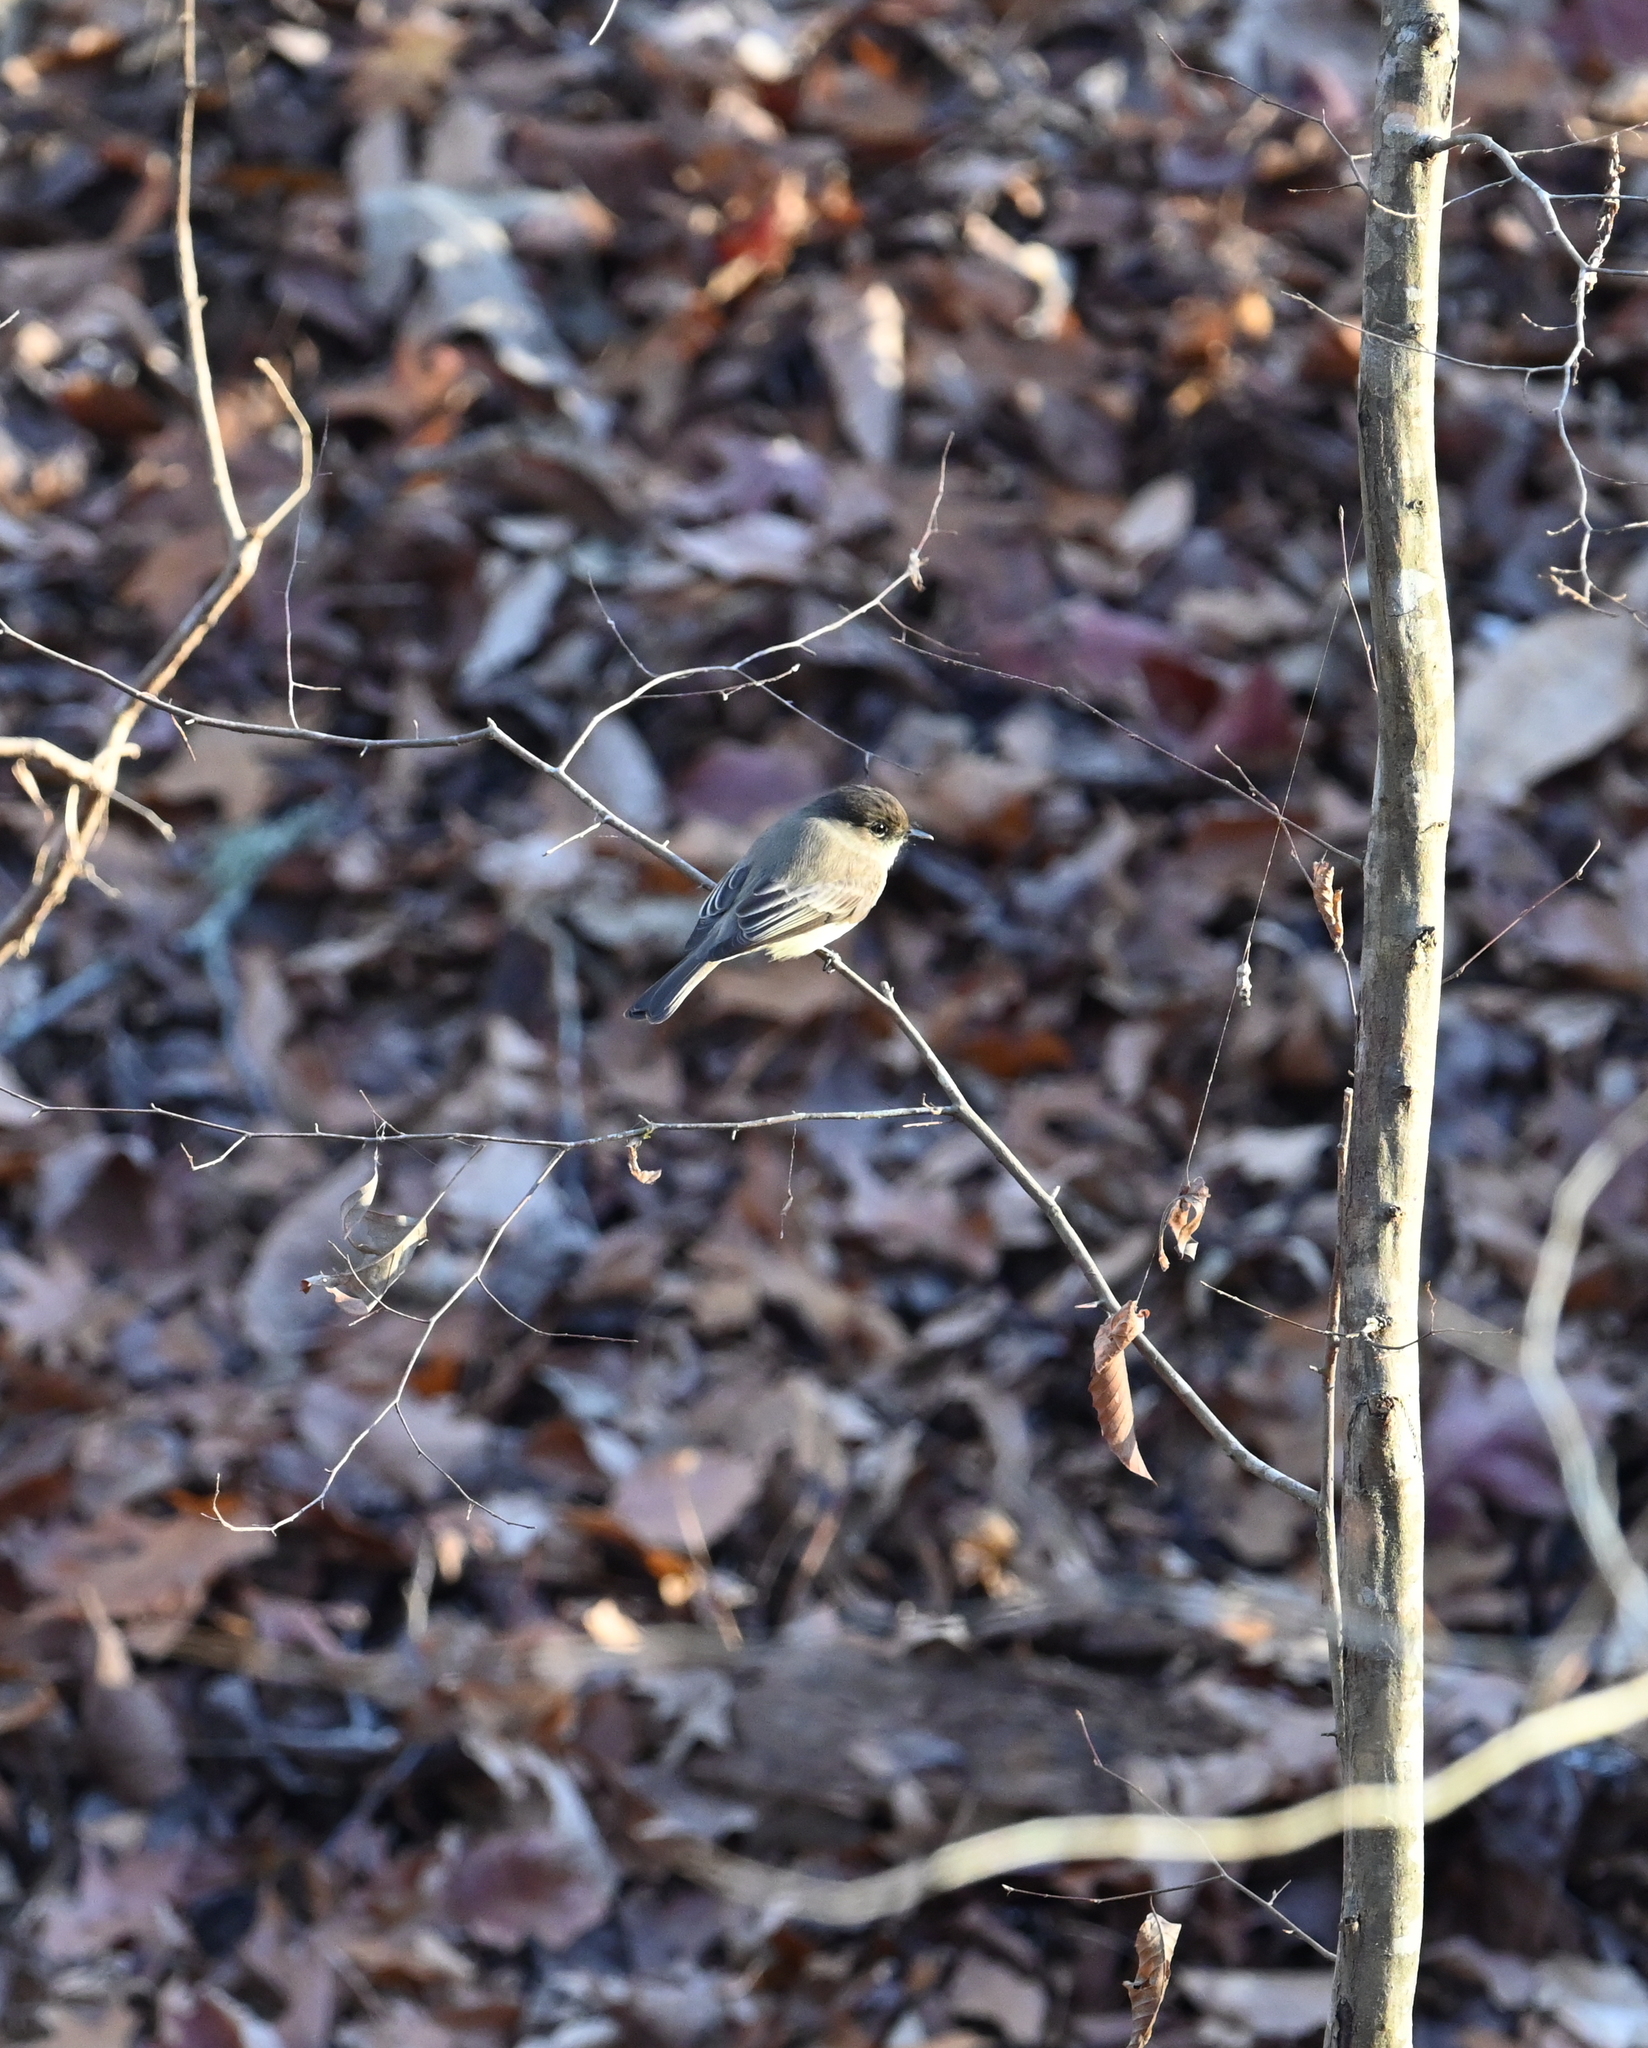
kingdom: Animalia
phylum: Chordata
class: Aves
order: Passeriformes
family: Tyrannidae
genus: Sayornis
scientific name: Sayornis phoebe
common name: Eastern phoebe
